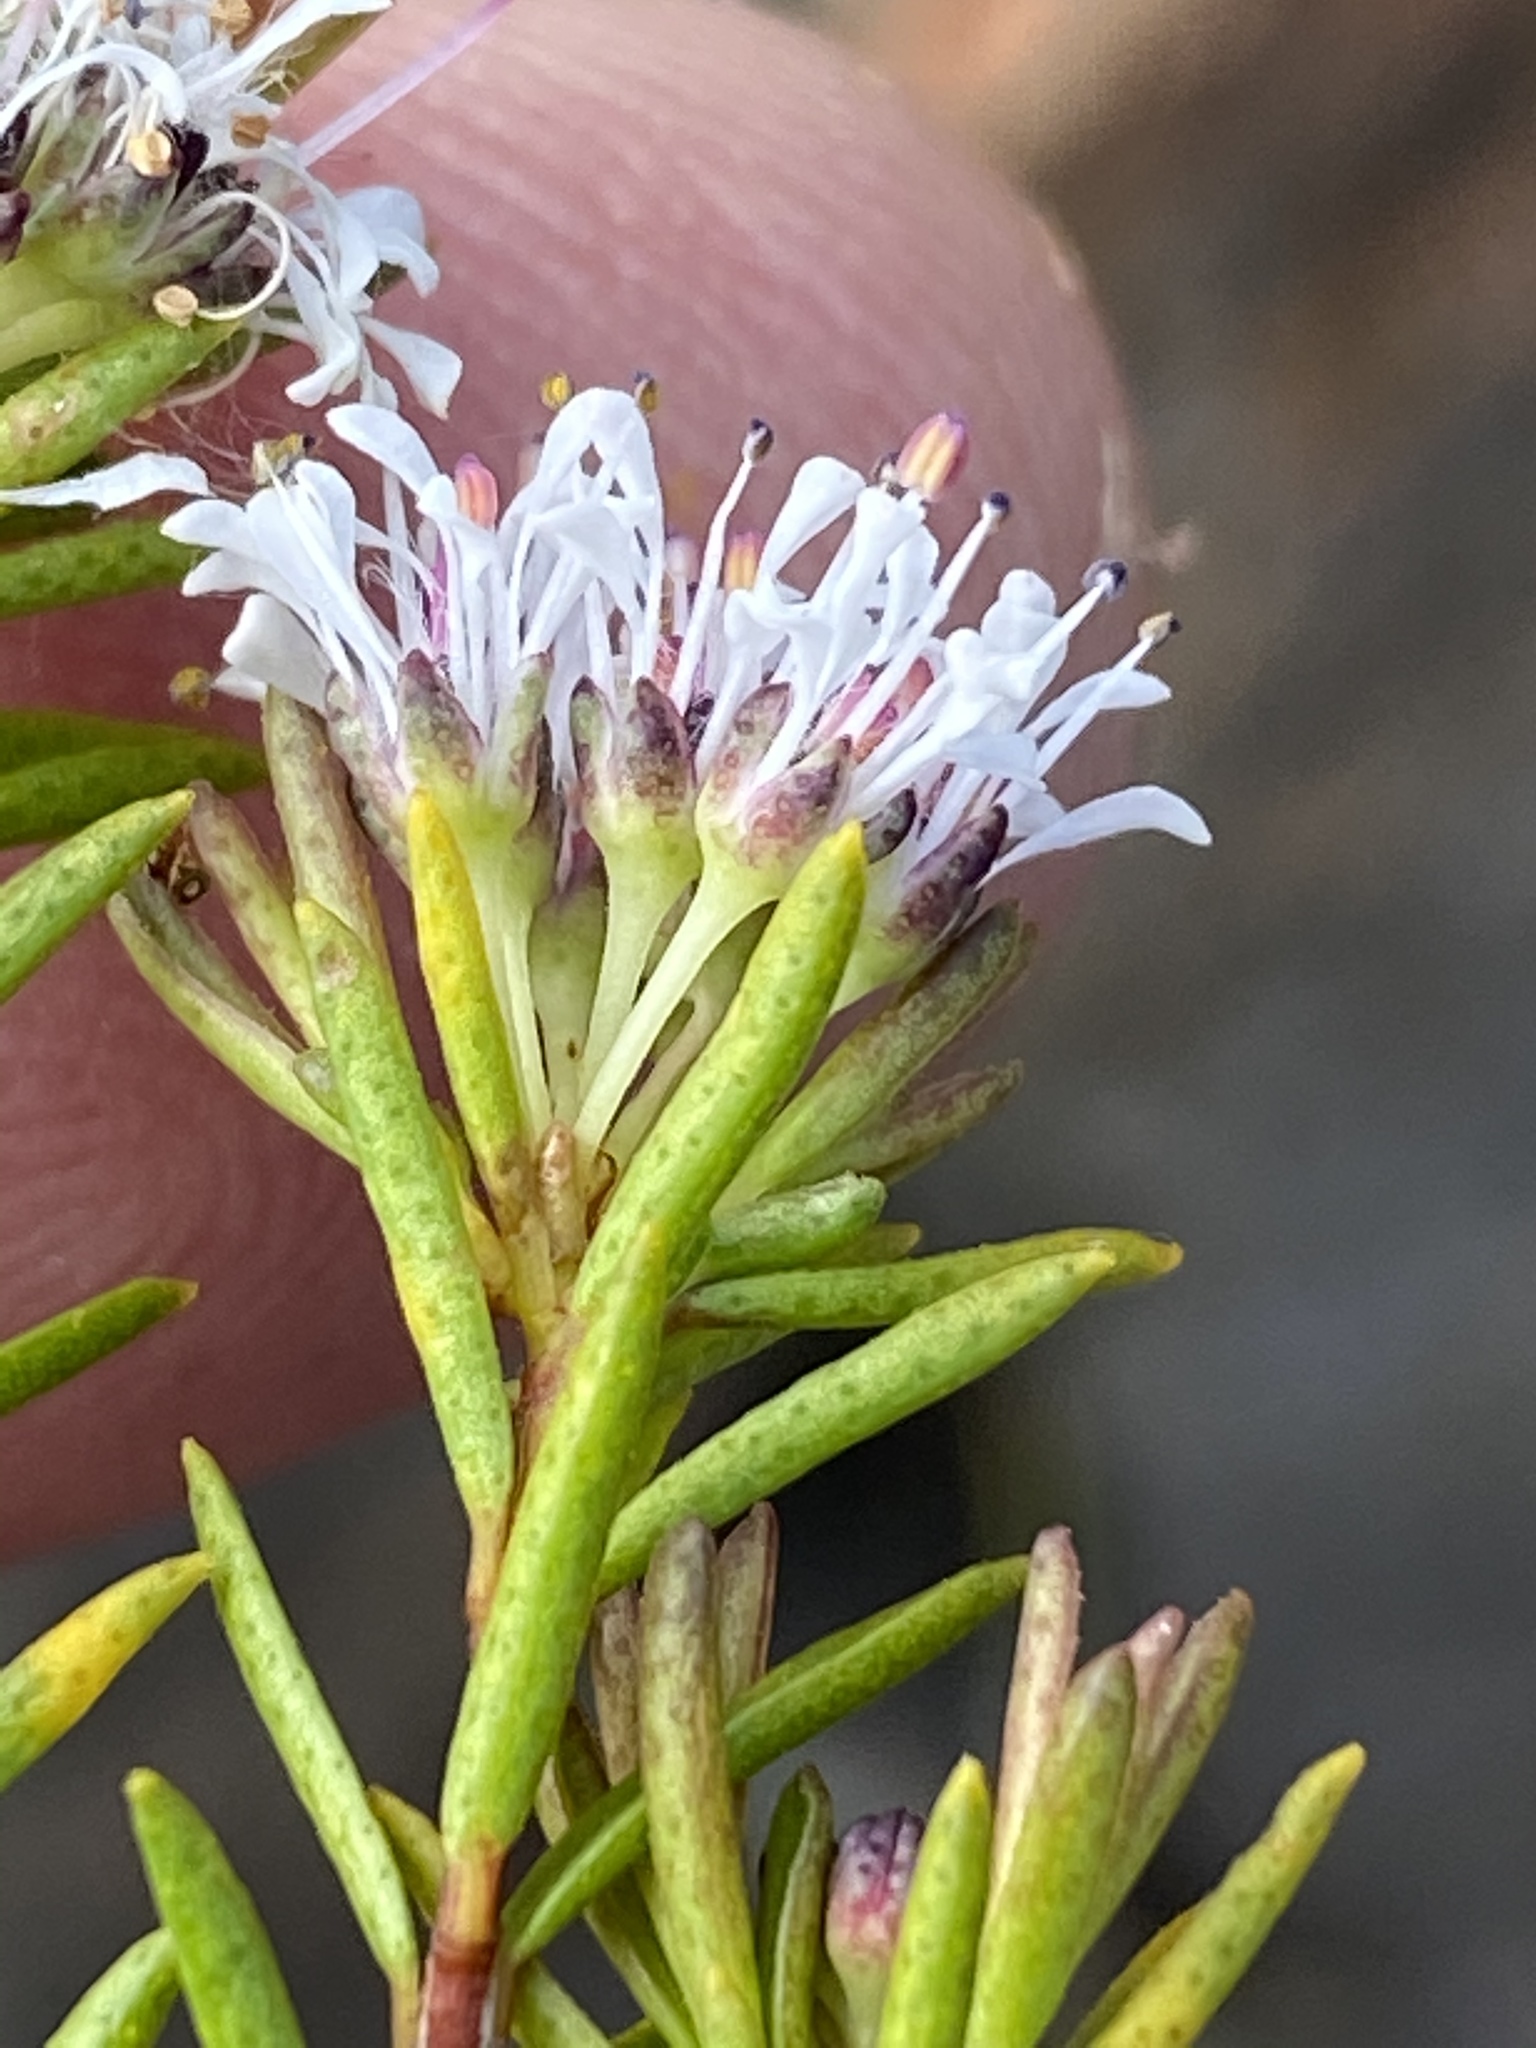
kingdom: Plantae
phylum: Tracheophyta
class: Magnoliopsida
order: Sapindales
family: Rutaceae
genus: Agathosma
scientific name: Agathosma virgata
